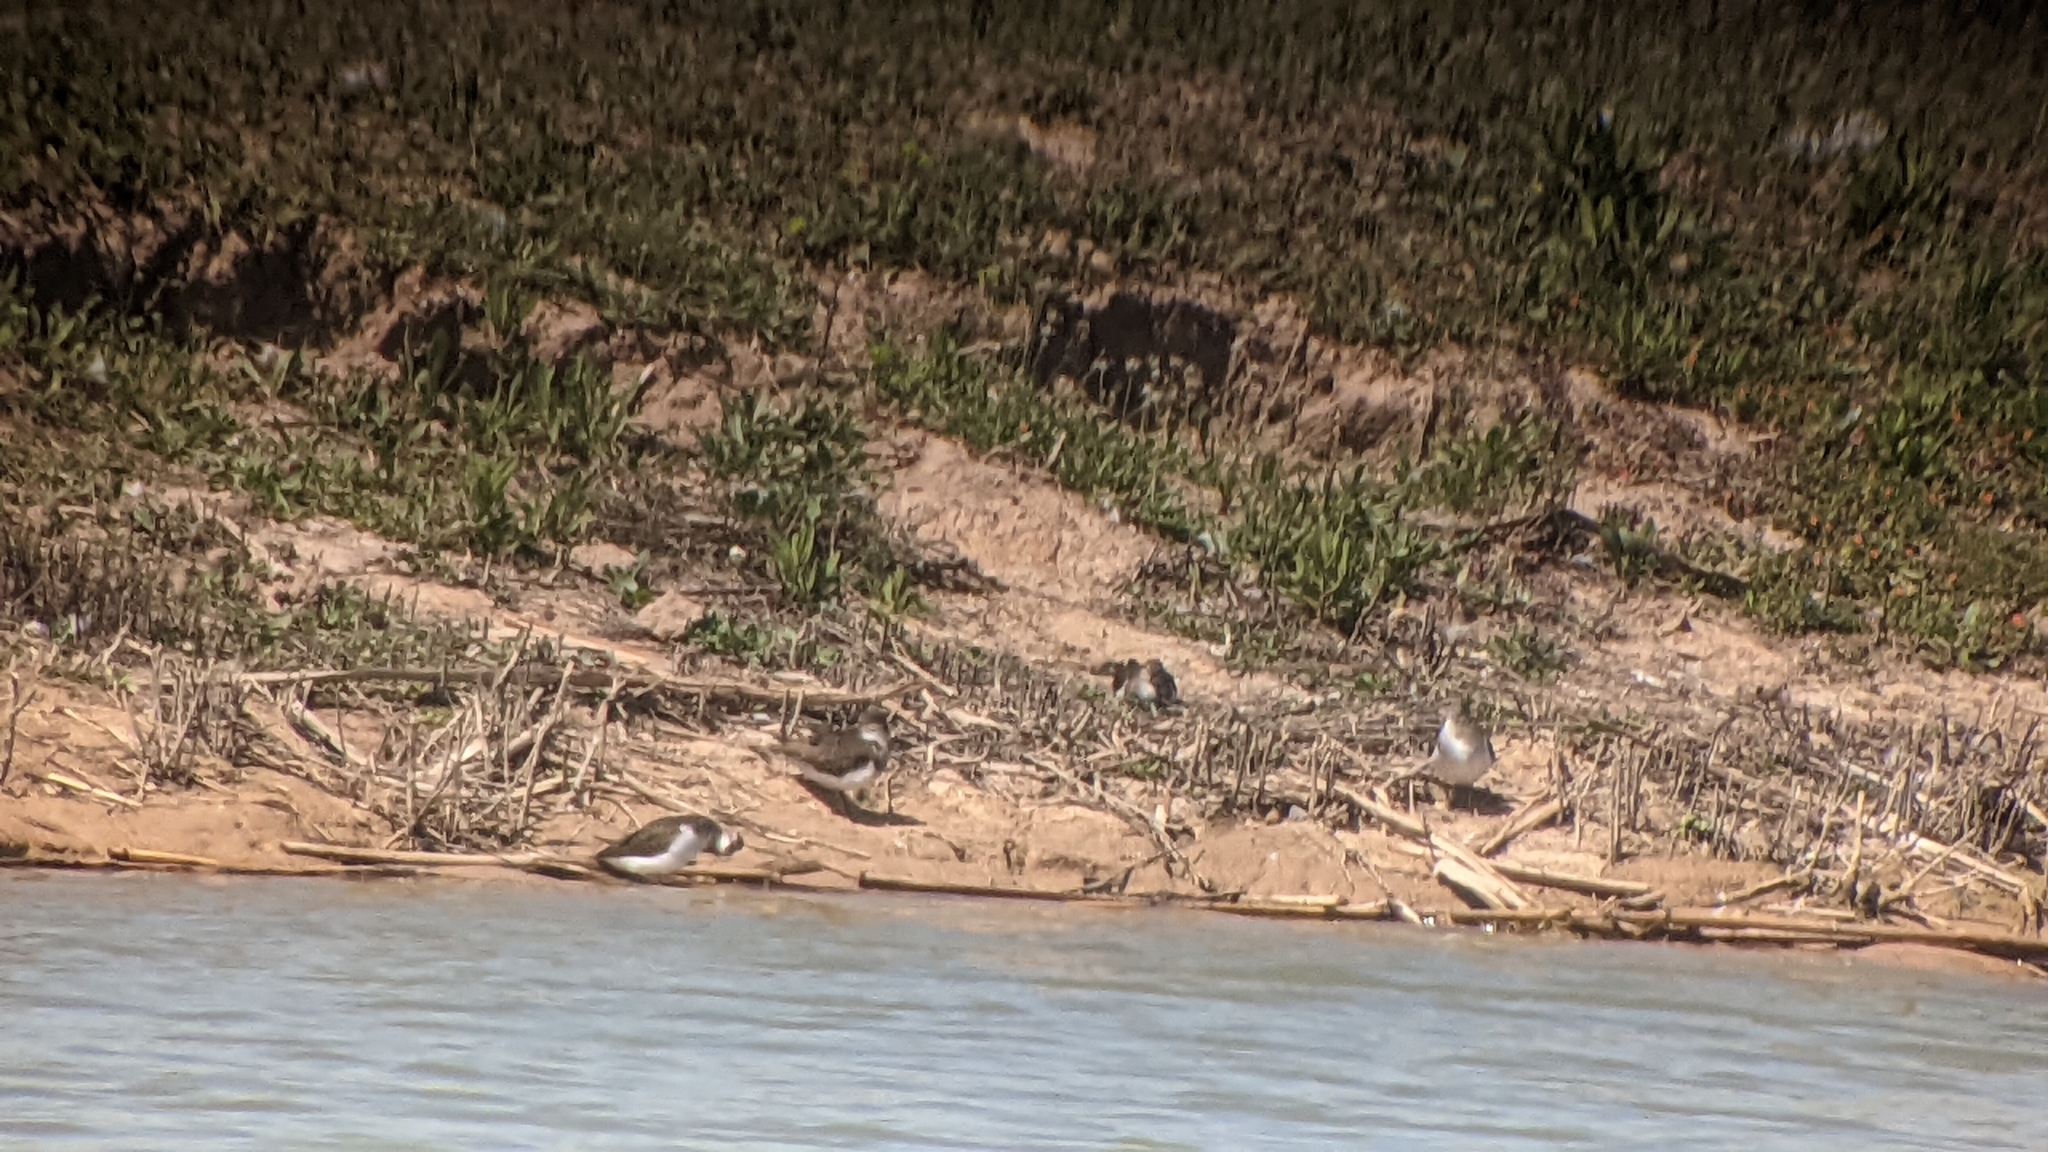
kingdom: Animalia
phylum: Chordata
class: Aves
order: Charadriiformes
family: Scolopacidae
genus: Actitis
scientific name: Actitis hypoleucos
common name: Common sandpiper
